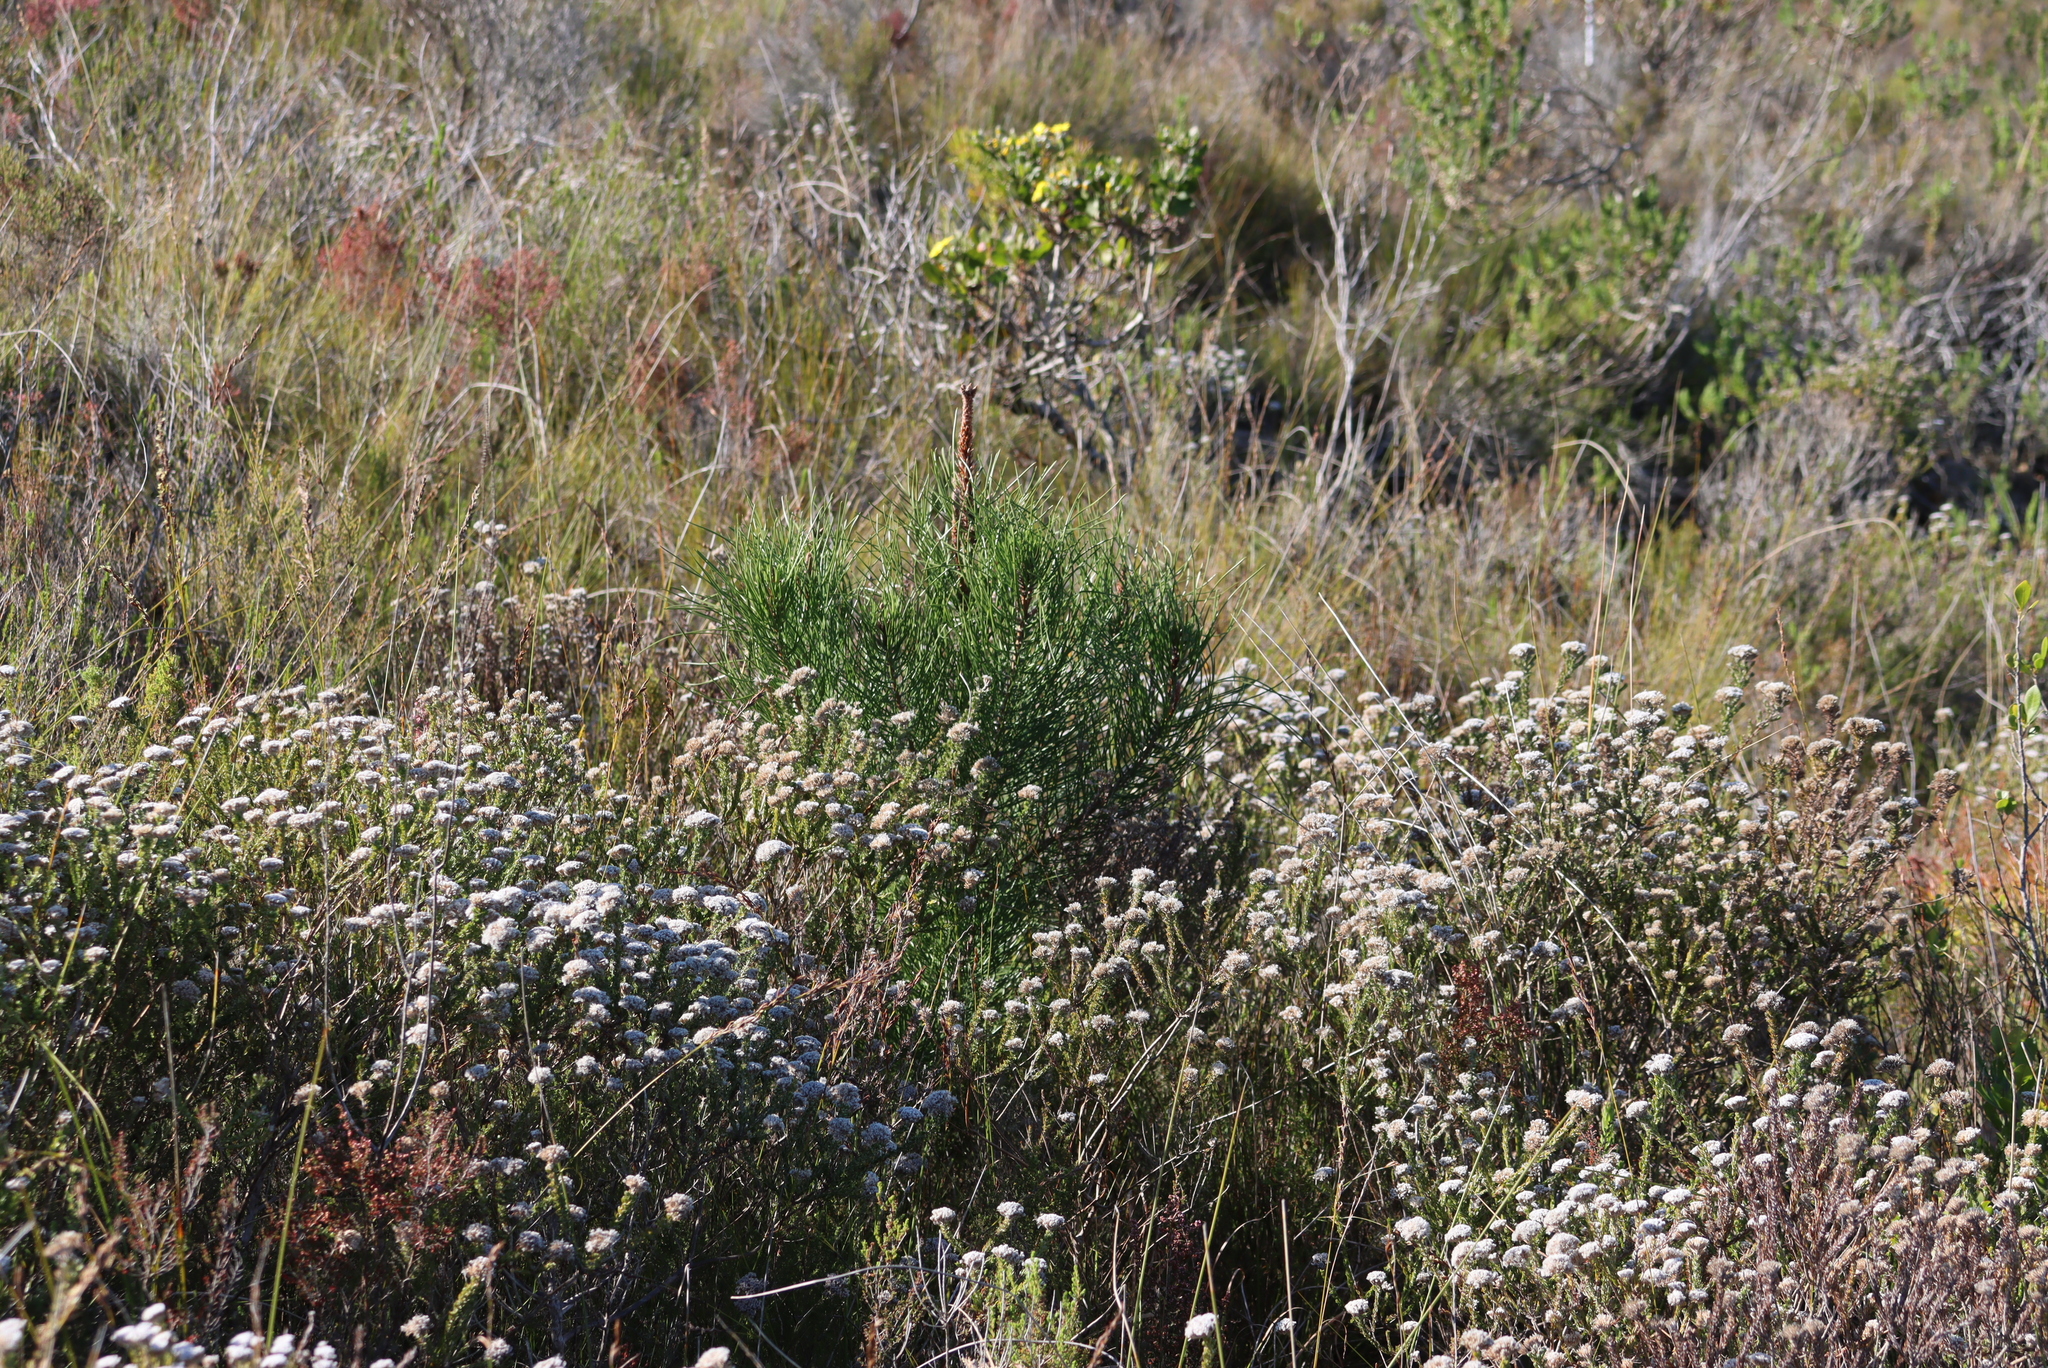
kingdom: Plantae
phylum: Tracheophyta
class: Pinopsida
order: Pinales
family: Pinaceae
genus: Pinus
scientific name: Pinus pinaster
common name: Maritime pine
